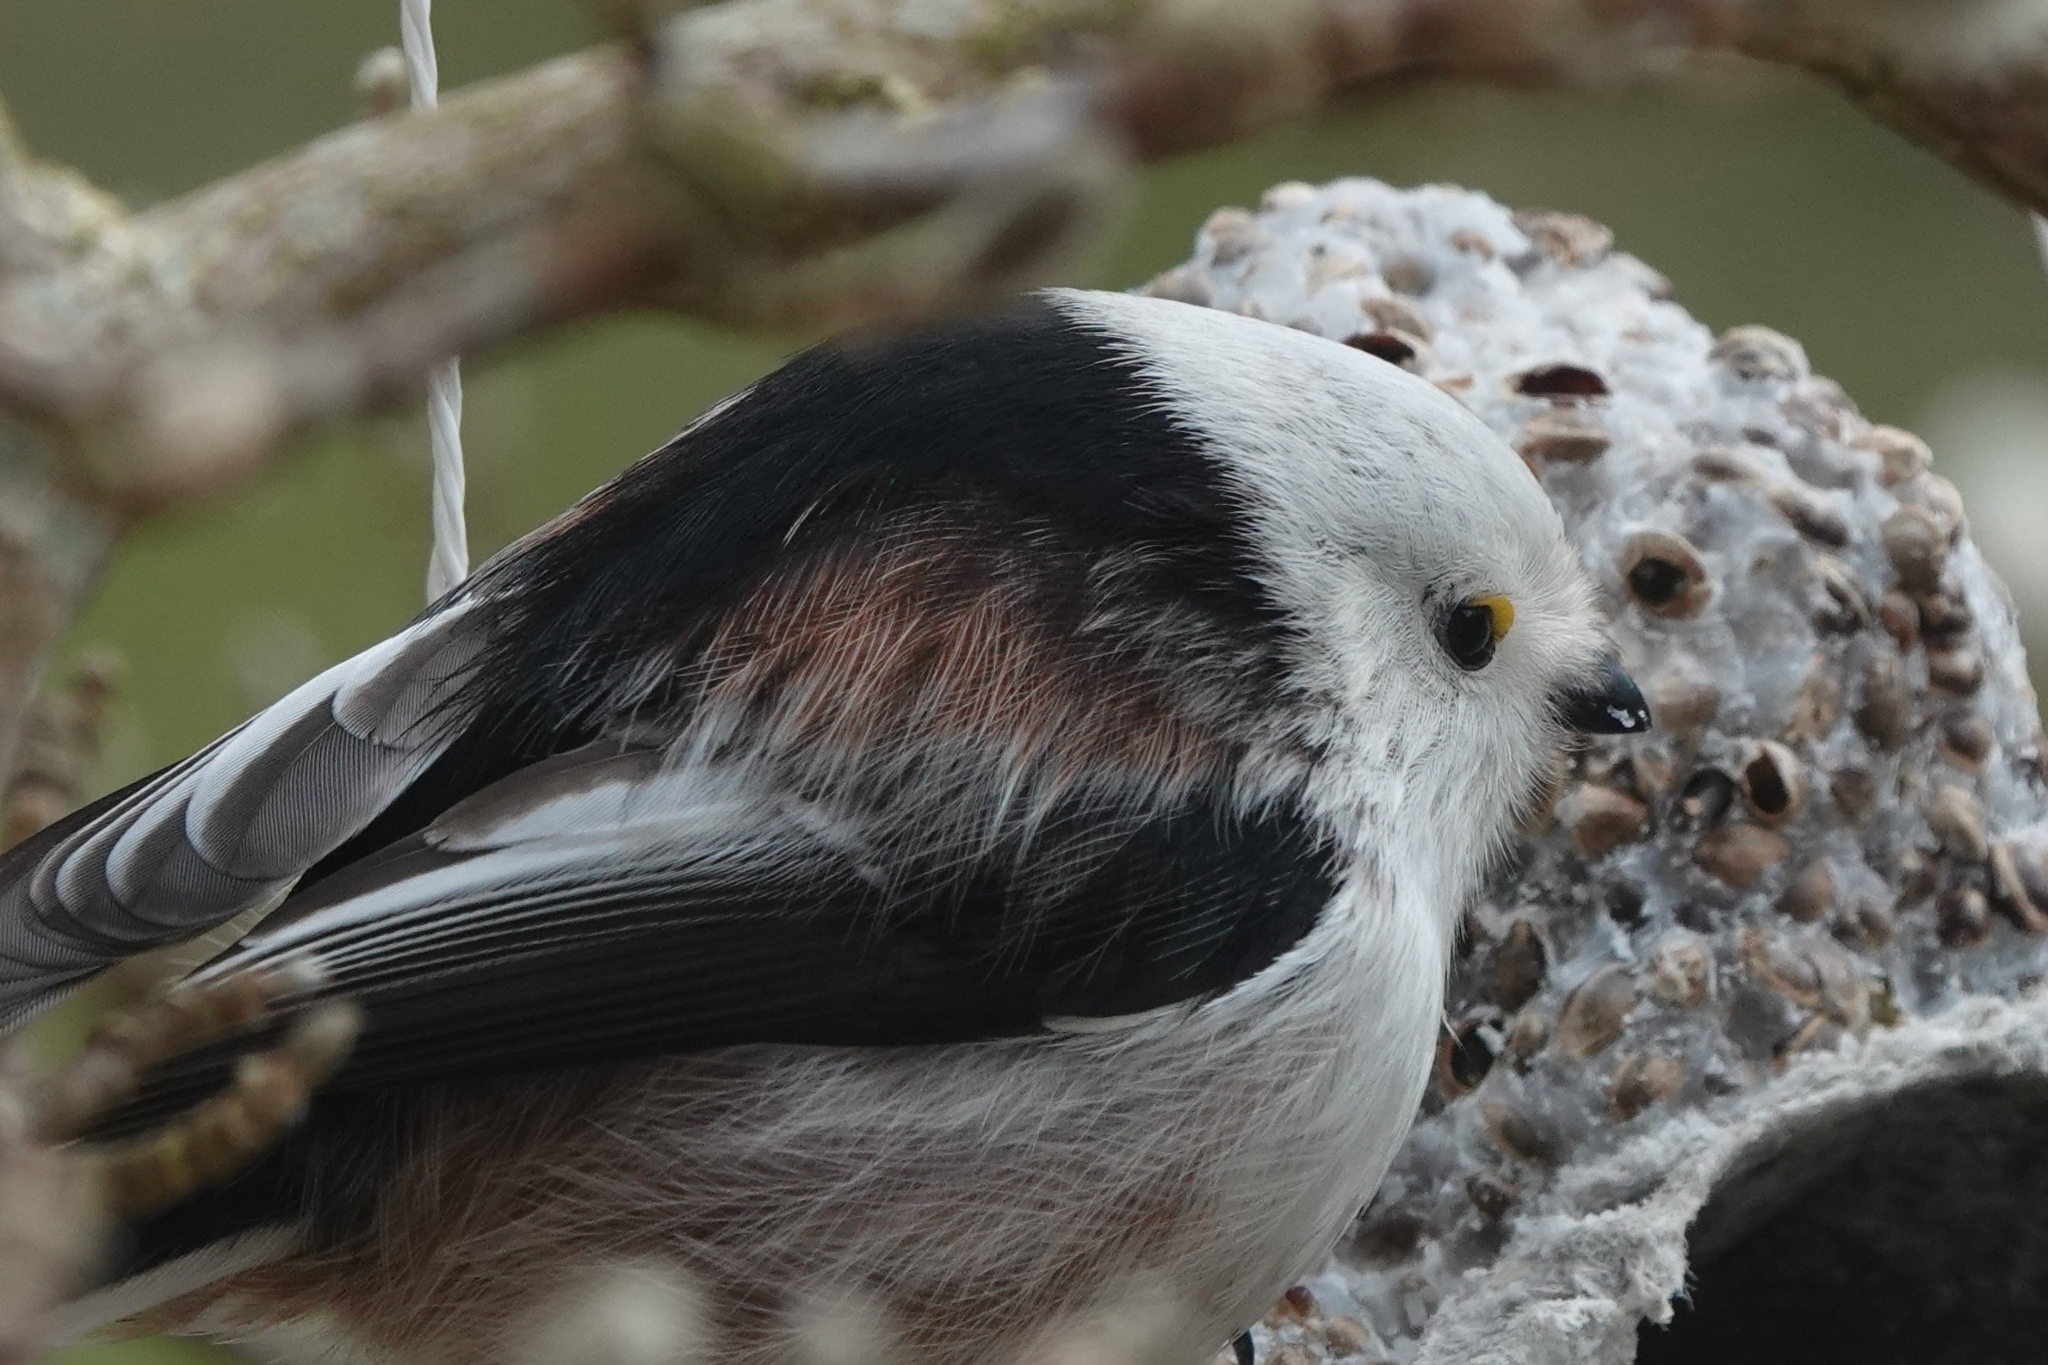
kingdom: Animalia
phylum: Chordata
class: Aves
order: Passeriformes
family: Aegithalidae
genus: Aegithalos
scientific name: Aegithalos caudatus
